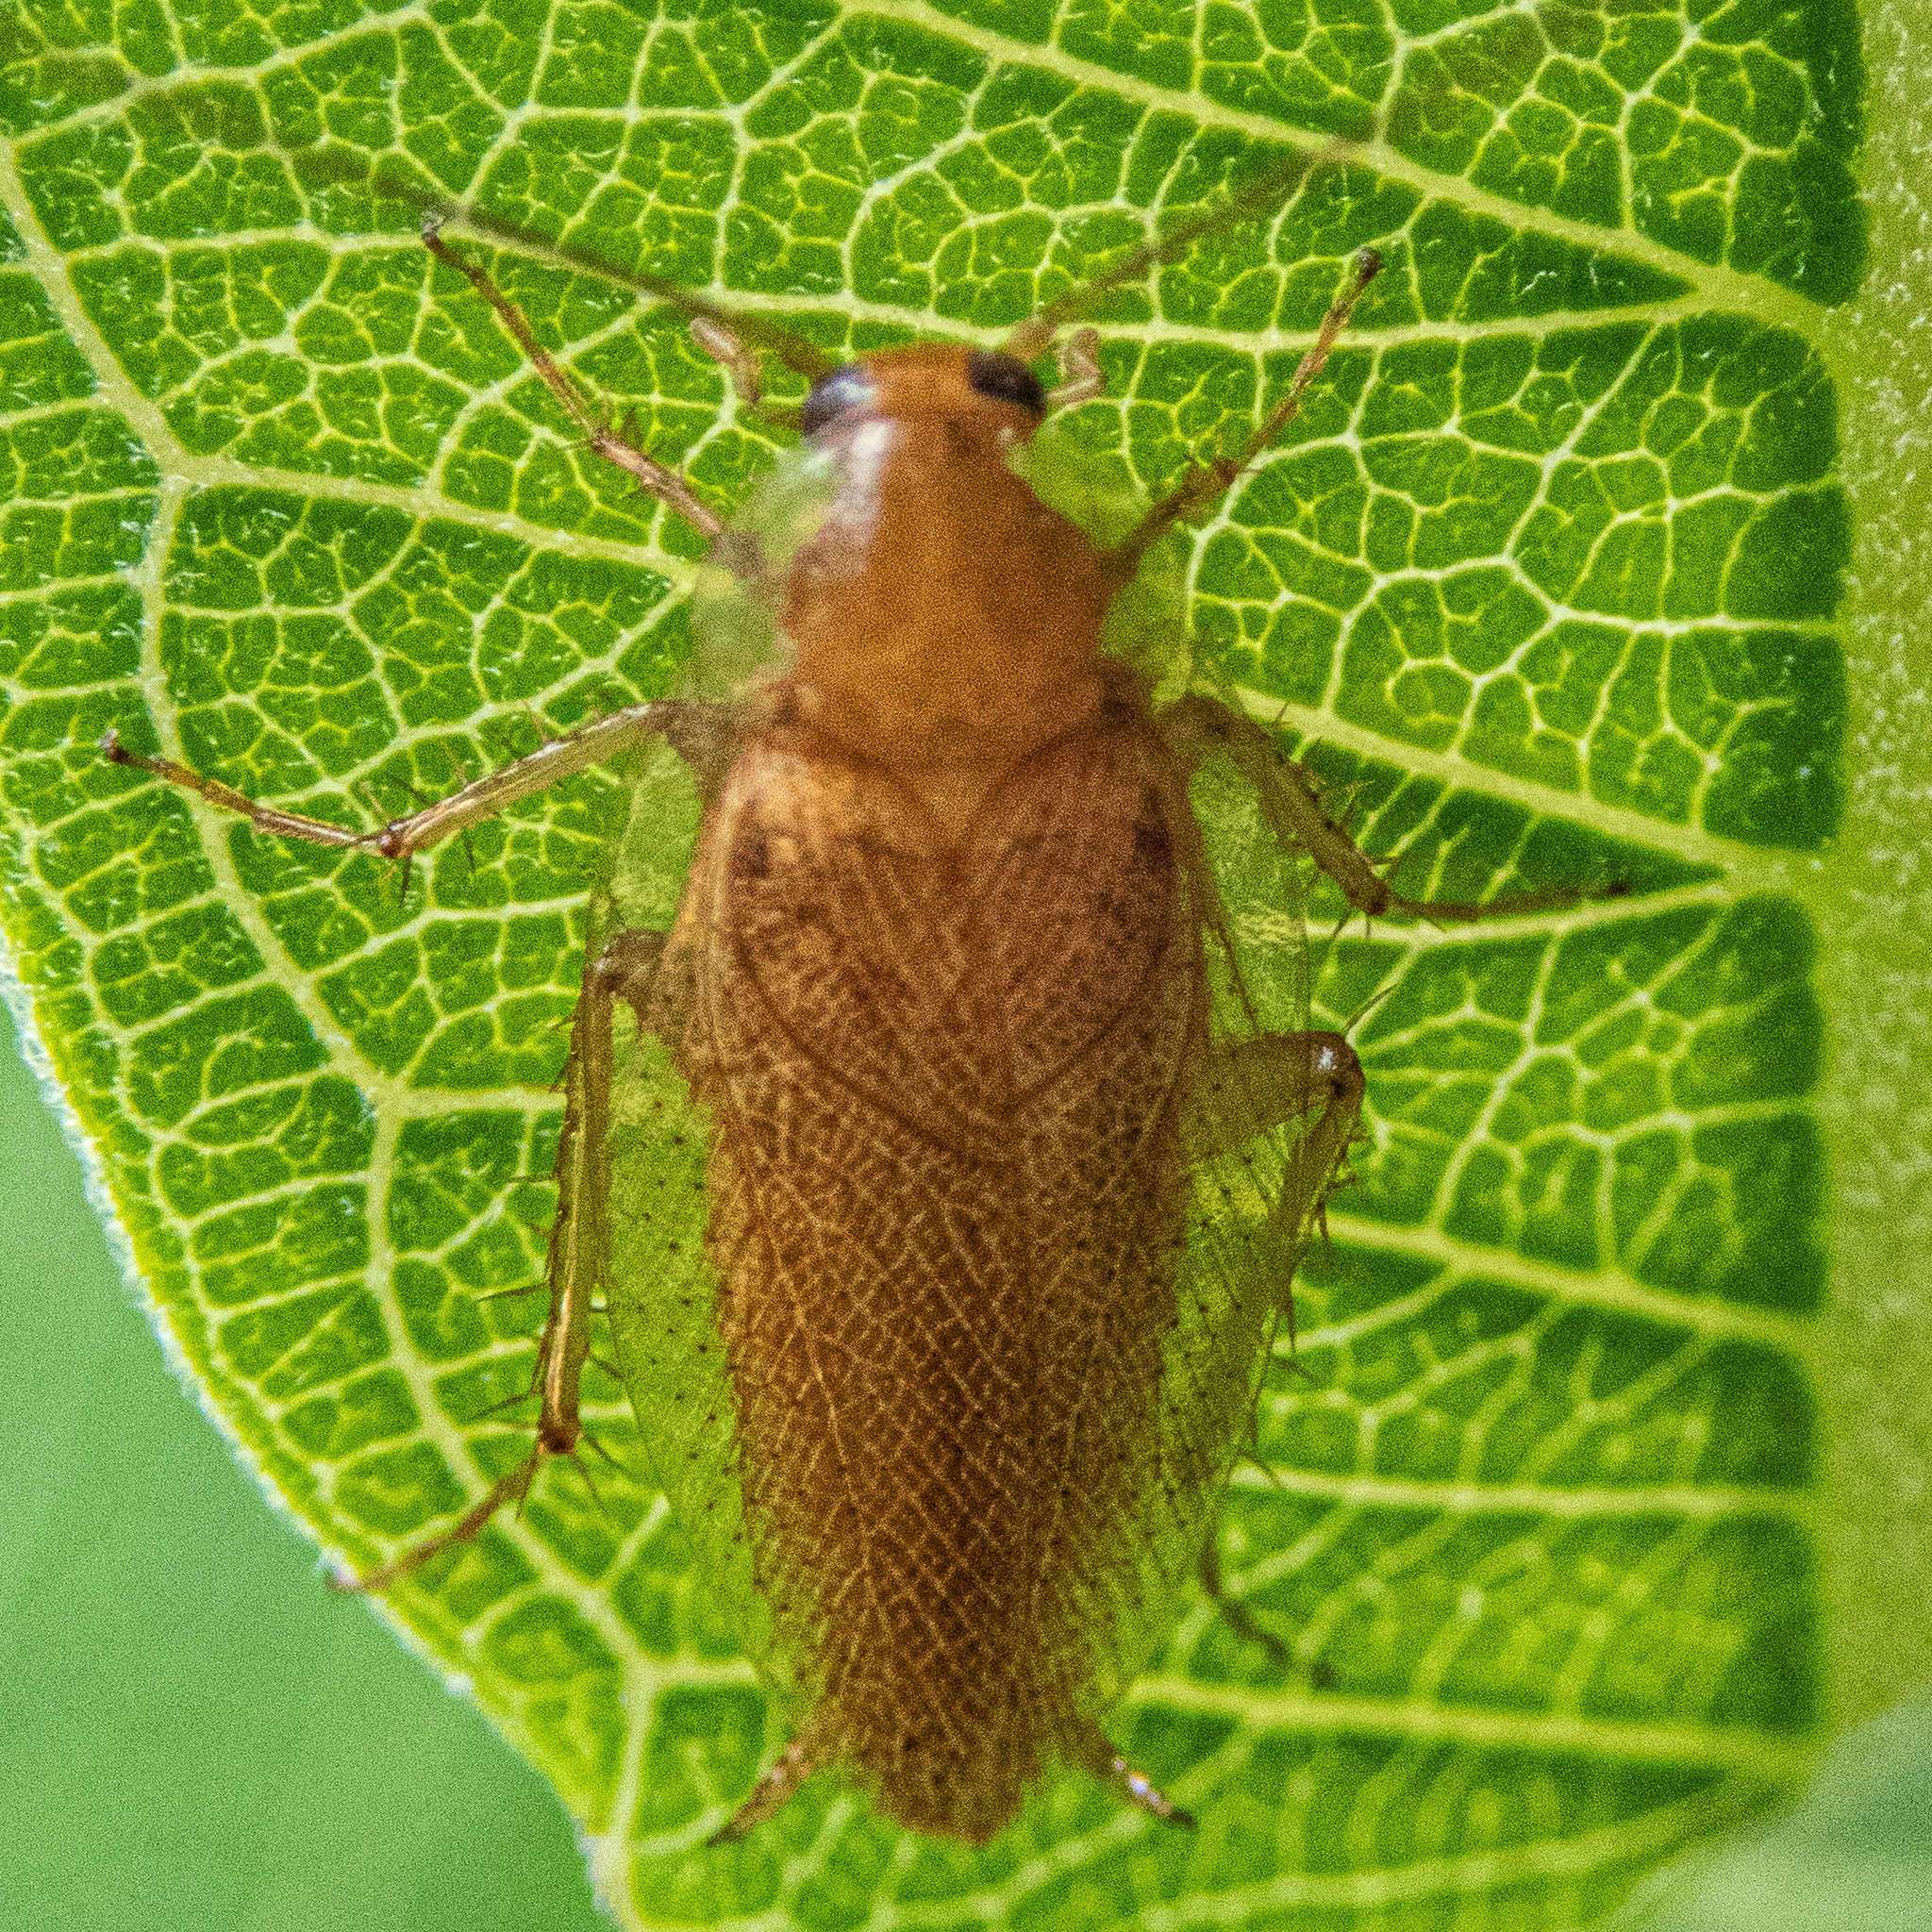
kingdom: Animalia
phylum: Arthropoda
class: Insecta
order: Blattodea
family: Ectobiidae
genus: Ectobius
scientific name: Ectobius pallidus
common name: Tawny cockroach
